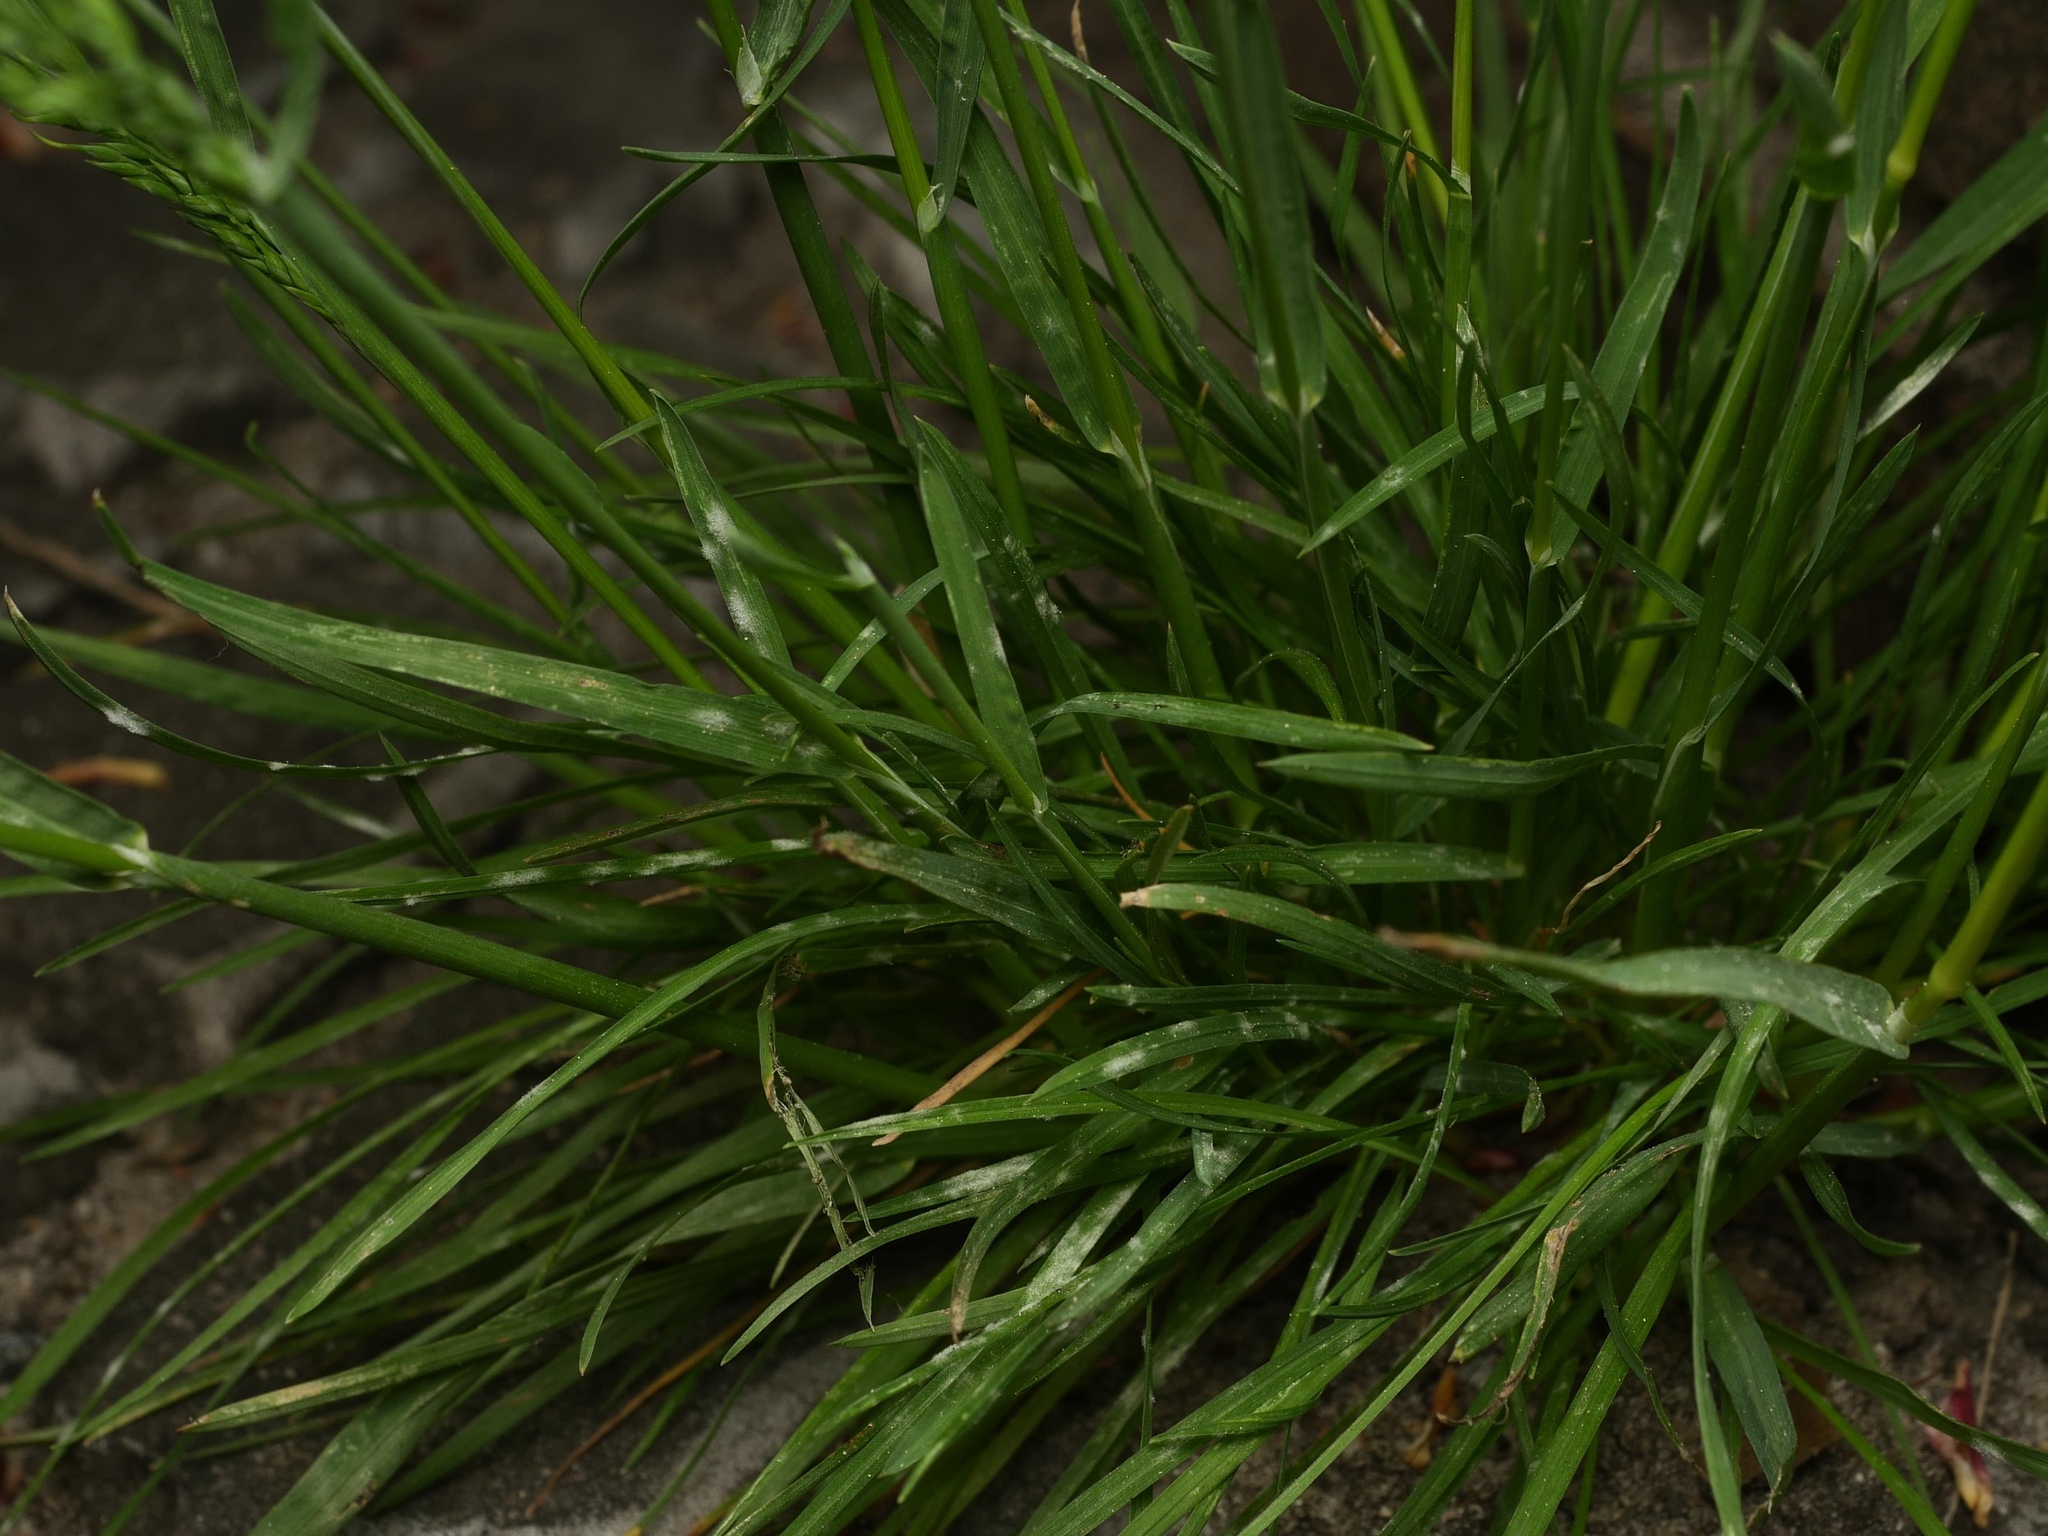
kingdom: Plantae
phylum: Tracheophyta
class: Liliopsida
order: Poales
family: Poaceae
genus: Poa
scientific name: Poa bulbosa
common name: Bulbous bluegrass
